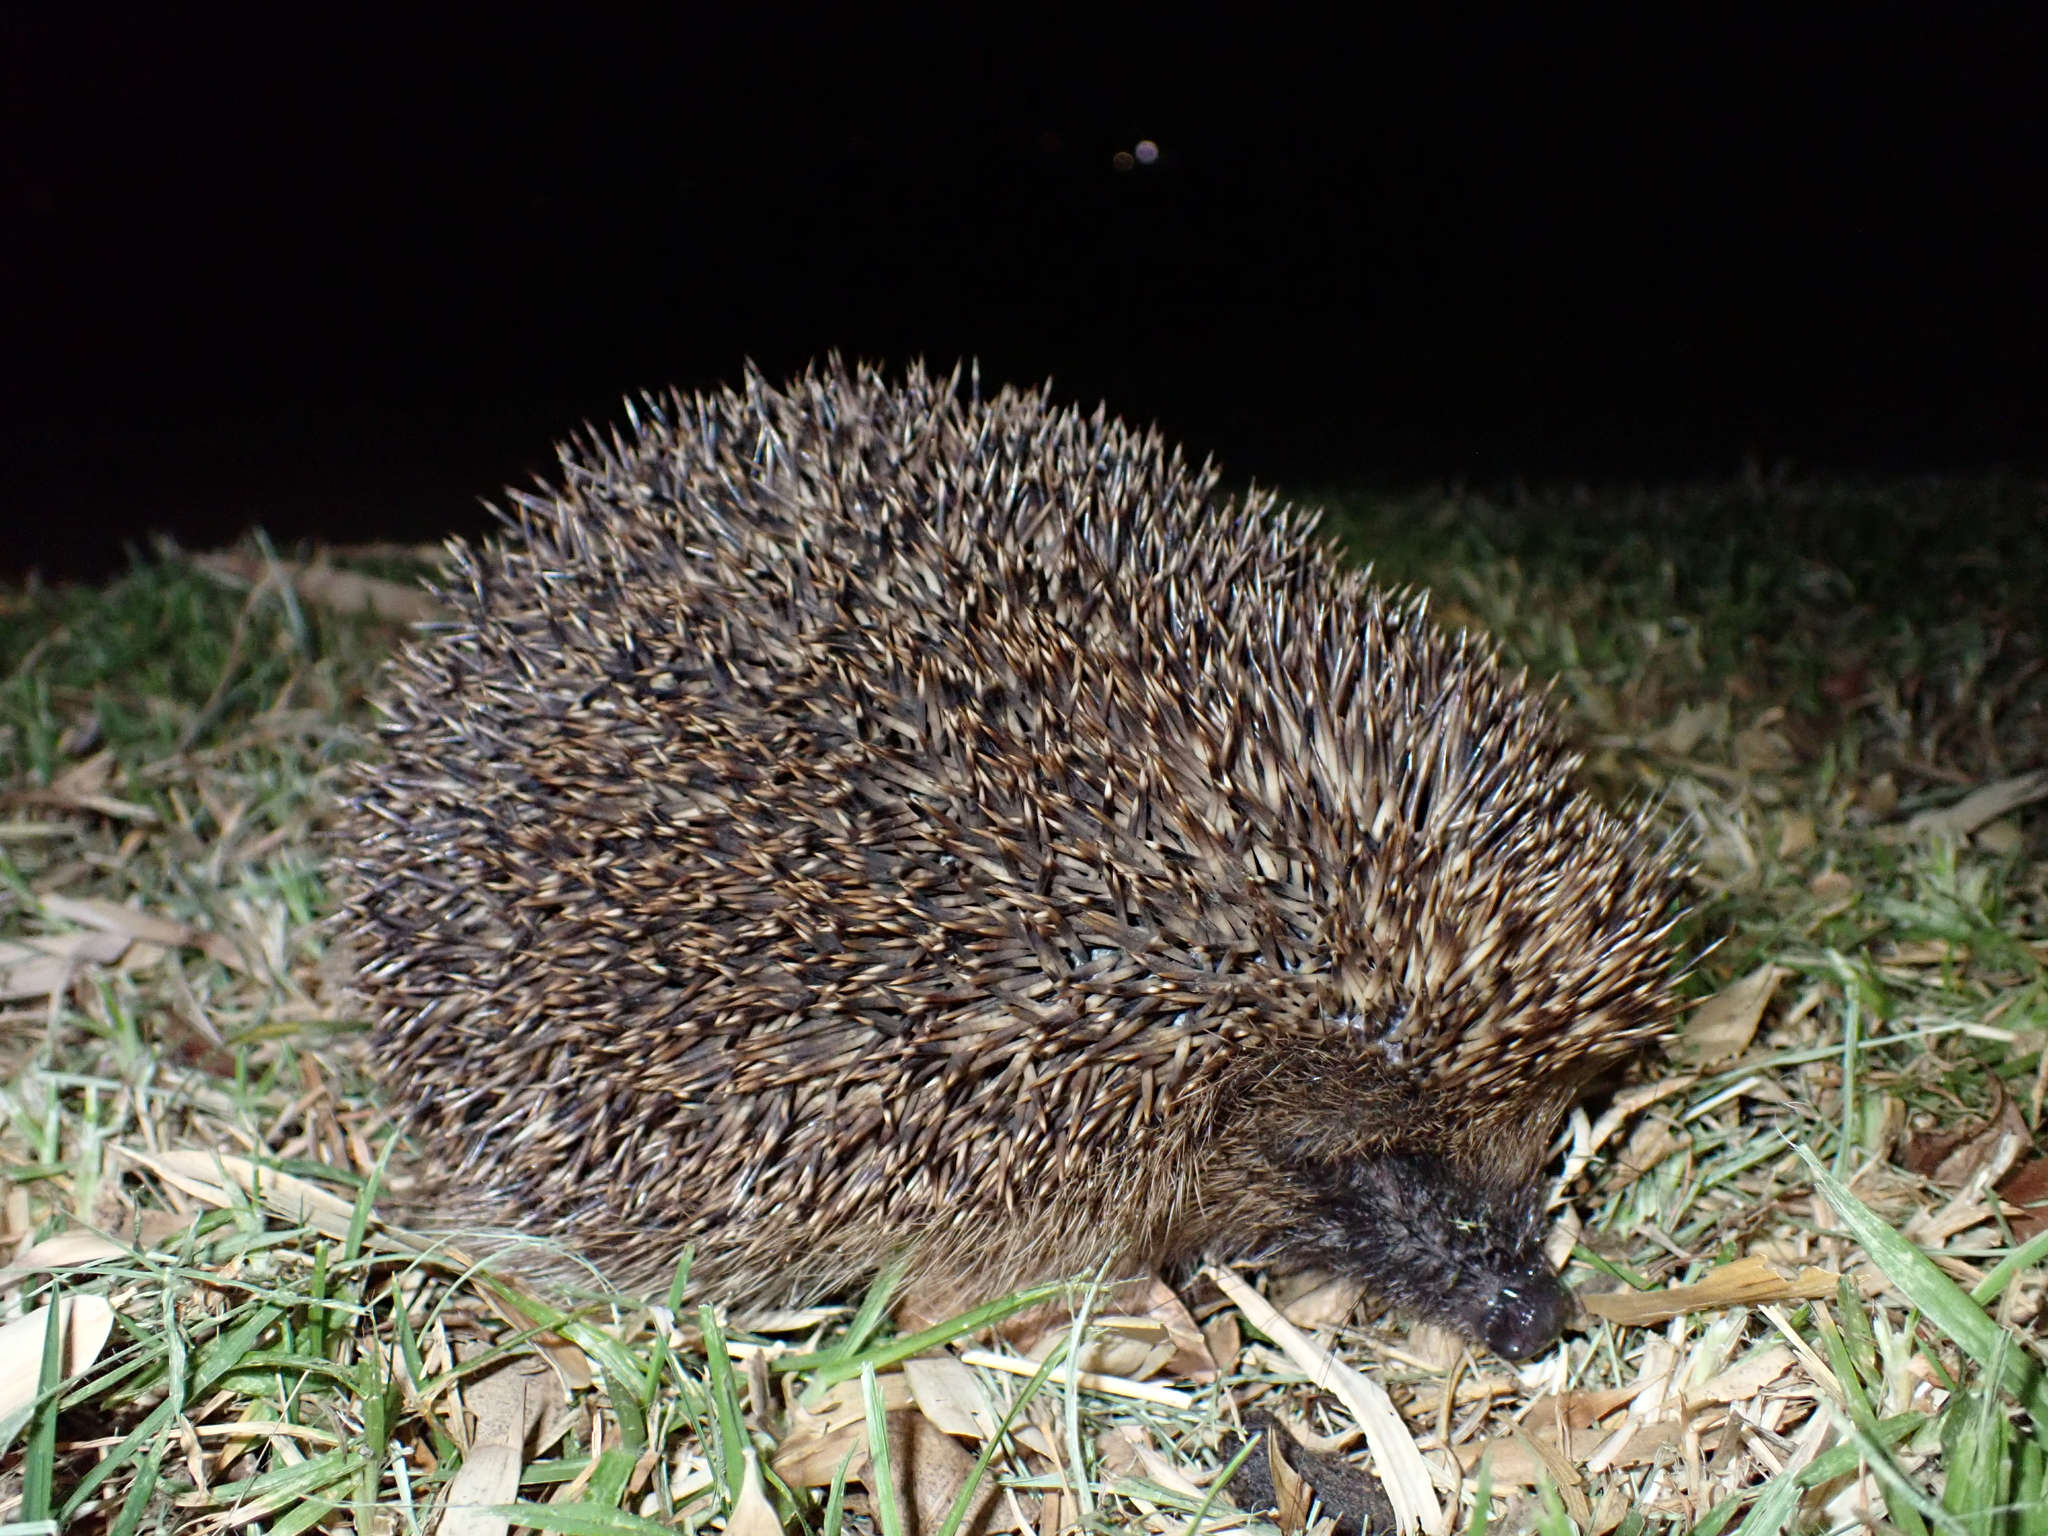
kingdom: Animalia
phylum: Chordata
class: Mammalia
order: Erinaceomorpha
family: Erinaceidae
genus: Erinaceus
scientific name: Erinaceus europaeus
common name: West european hedgehog
